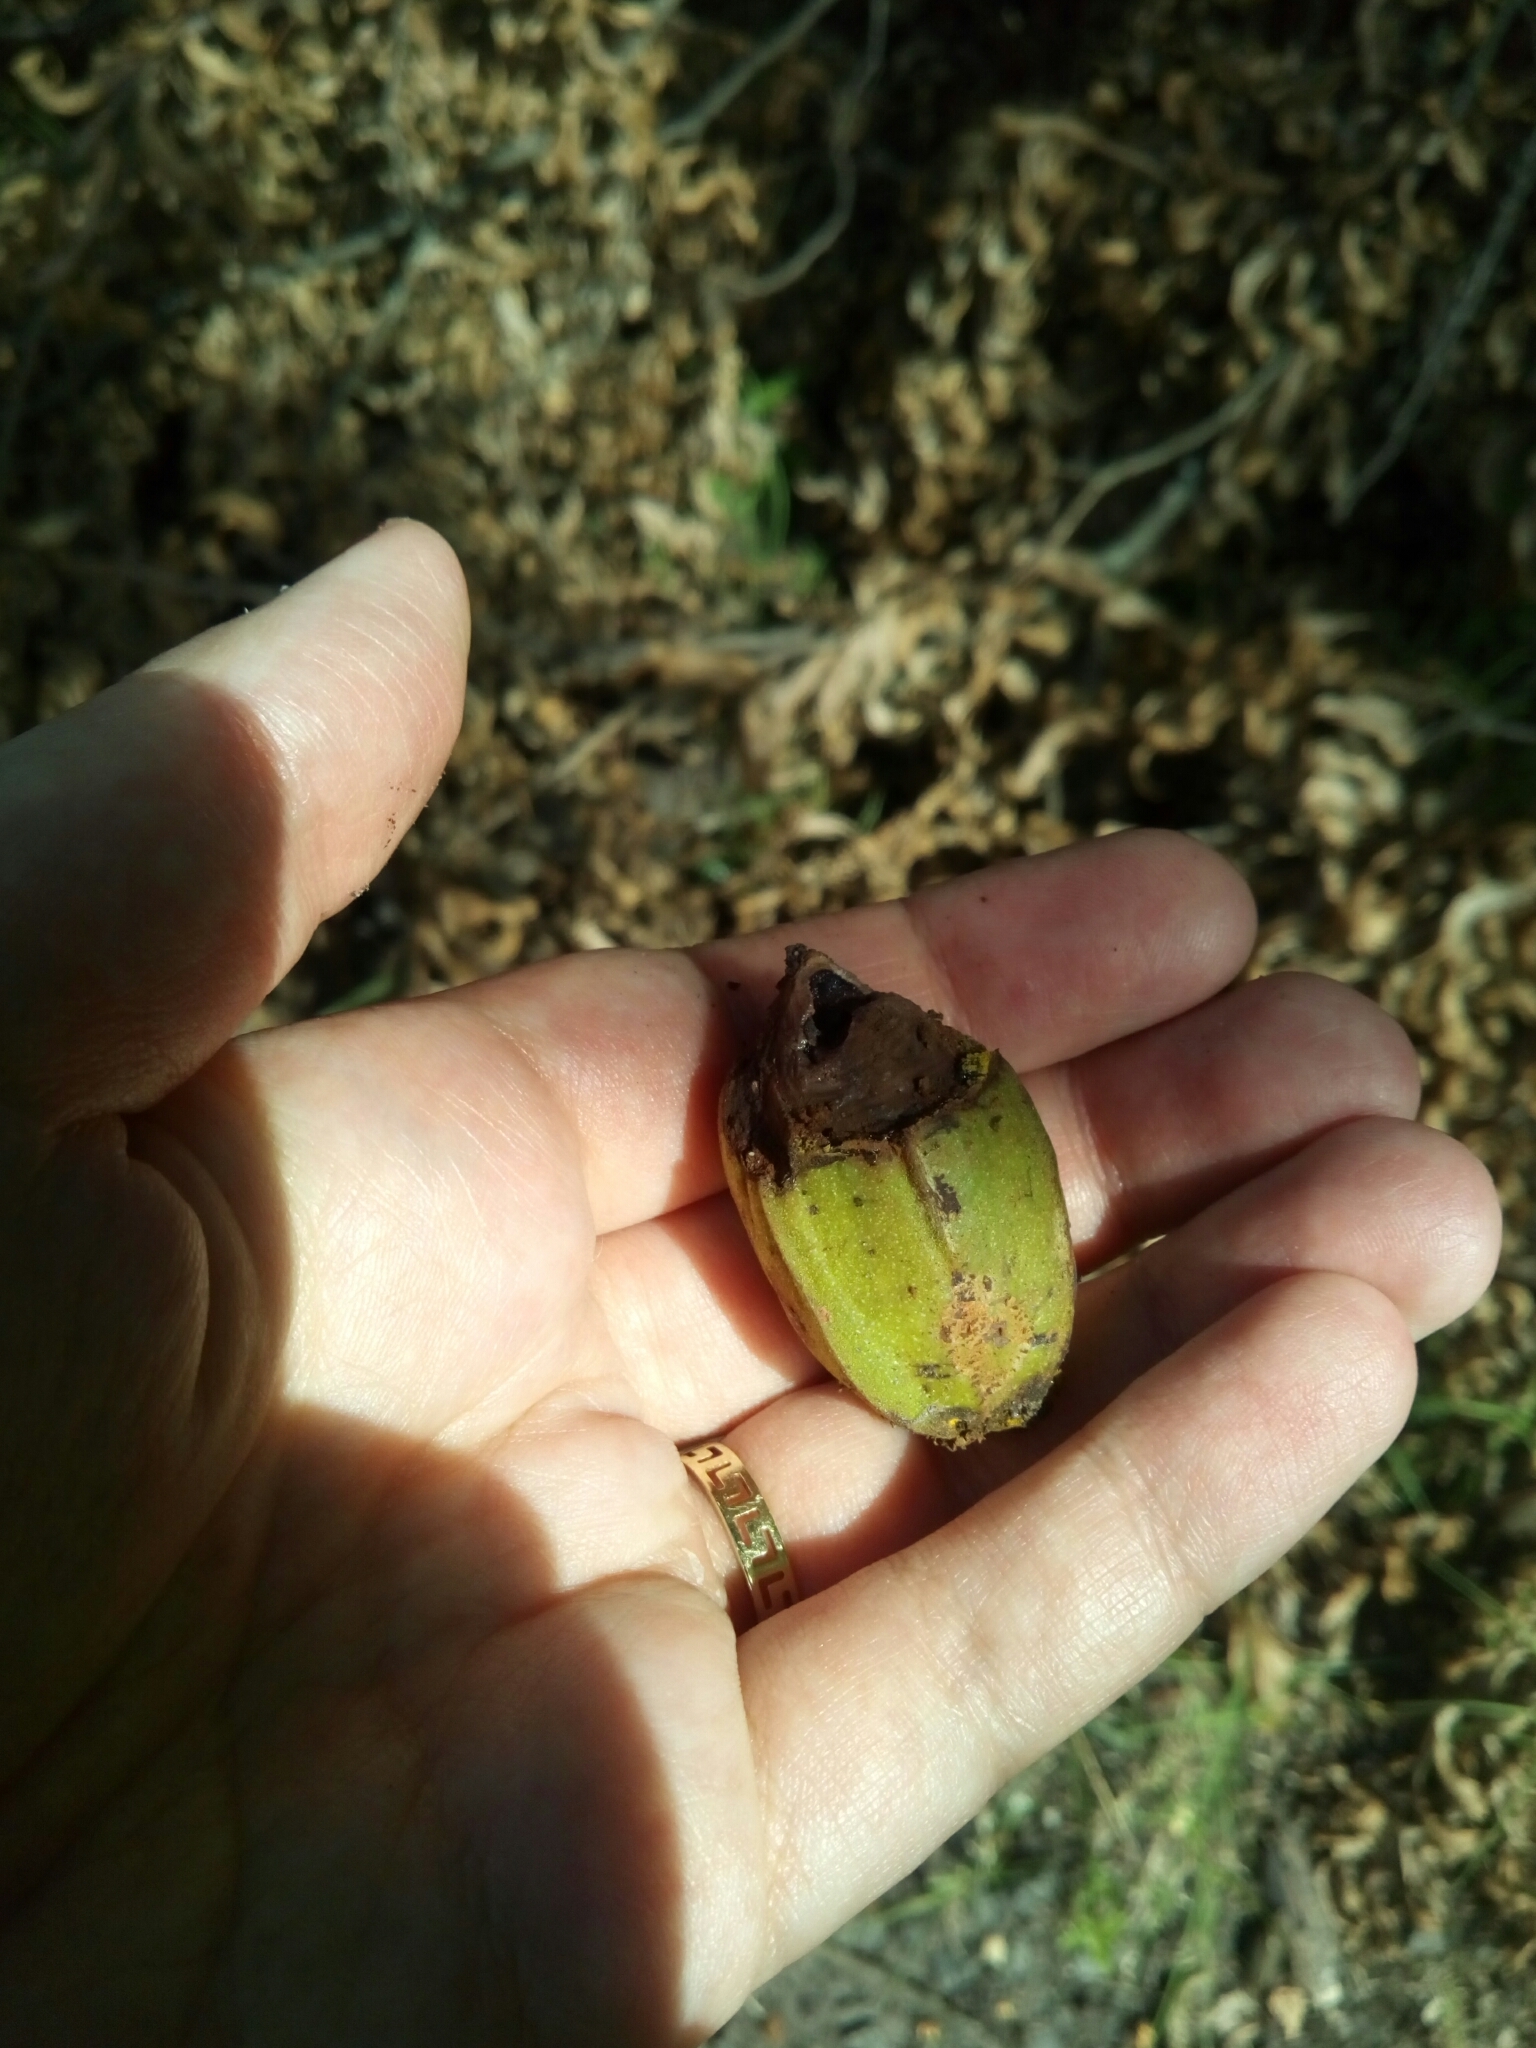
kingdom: Plantae
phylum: Tracheophyta
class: Magnoliopsida
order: Fagales
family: Juglandaceae
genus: Carya
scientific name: Carya illinoinensis
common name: Pecan
